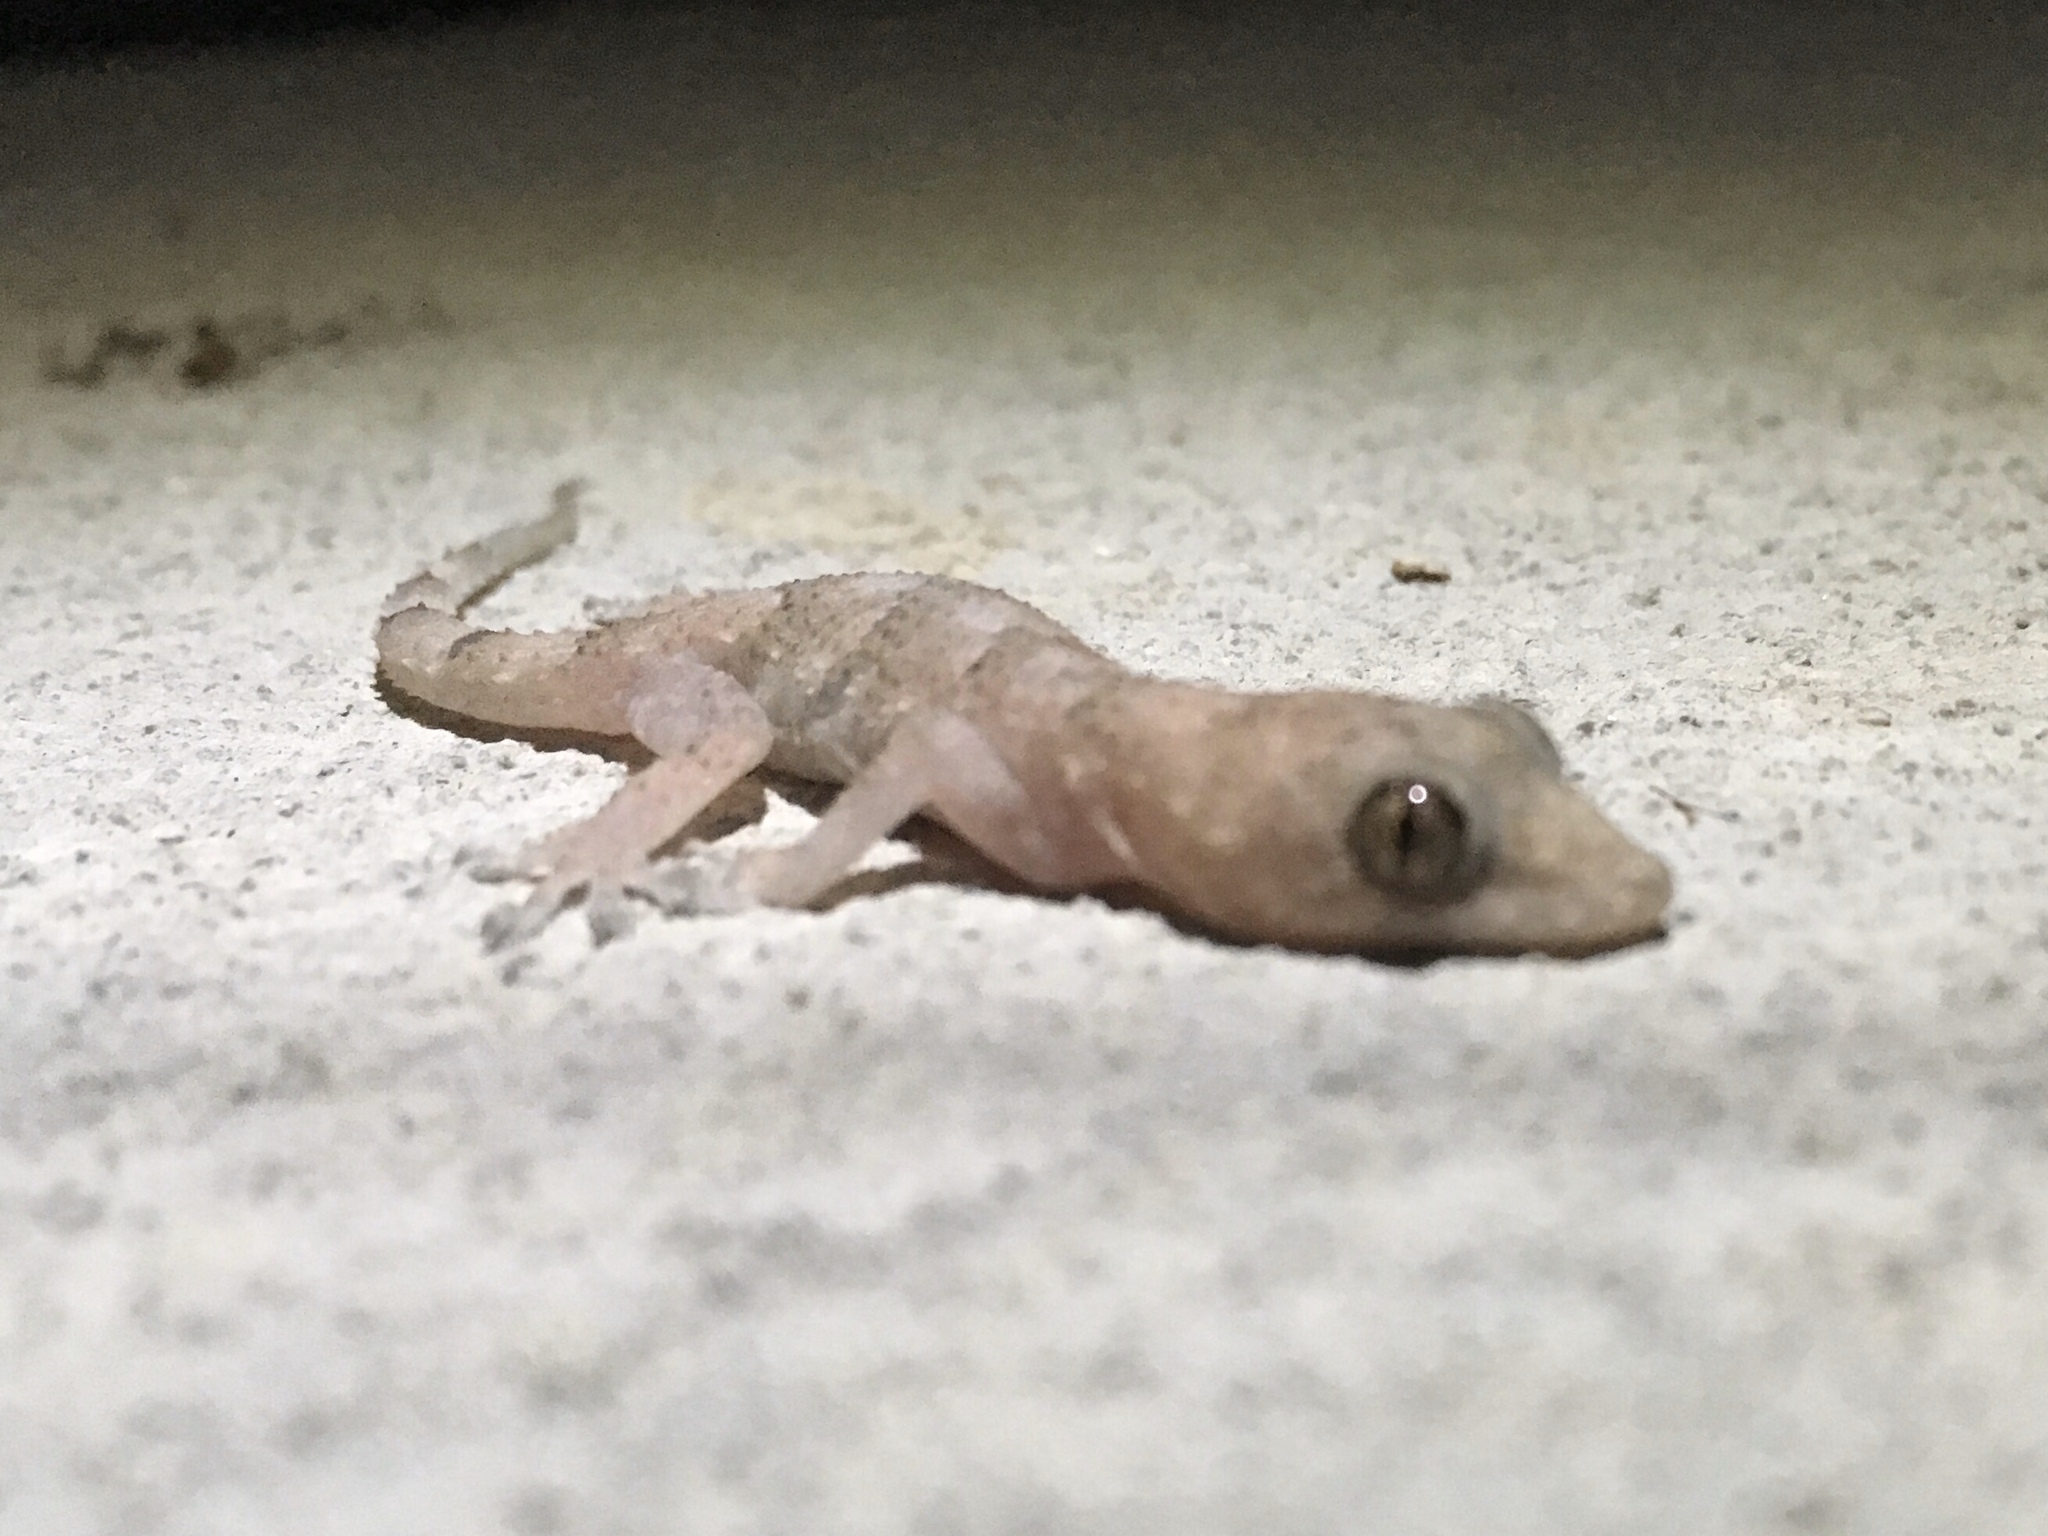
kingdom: Animalia
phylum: Chordata
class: Squamata
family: Gekkonidae
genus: Hemidactylus
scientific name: Hemidactylus mabouia
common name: House gecko
